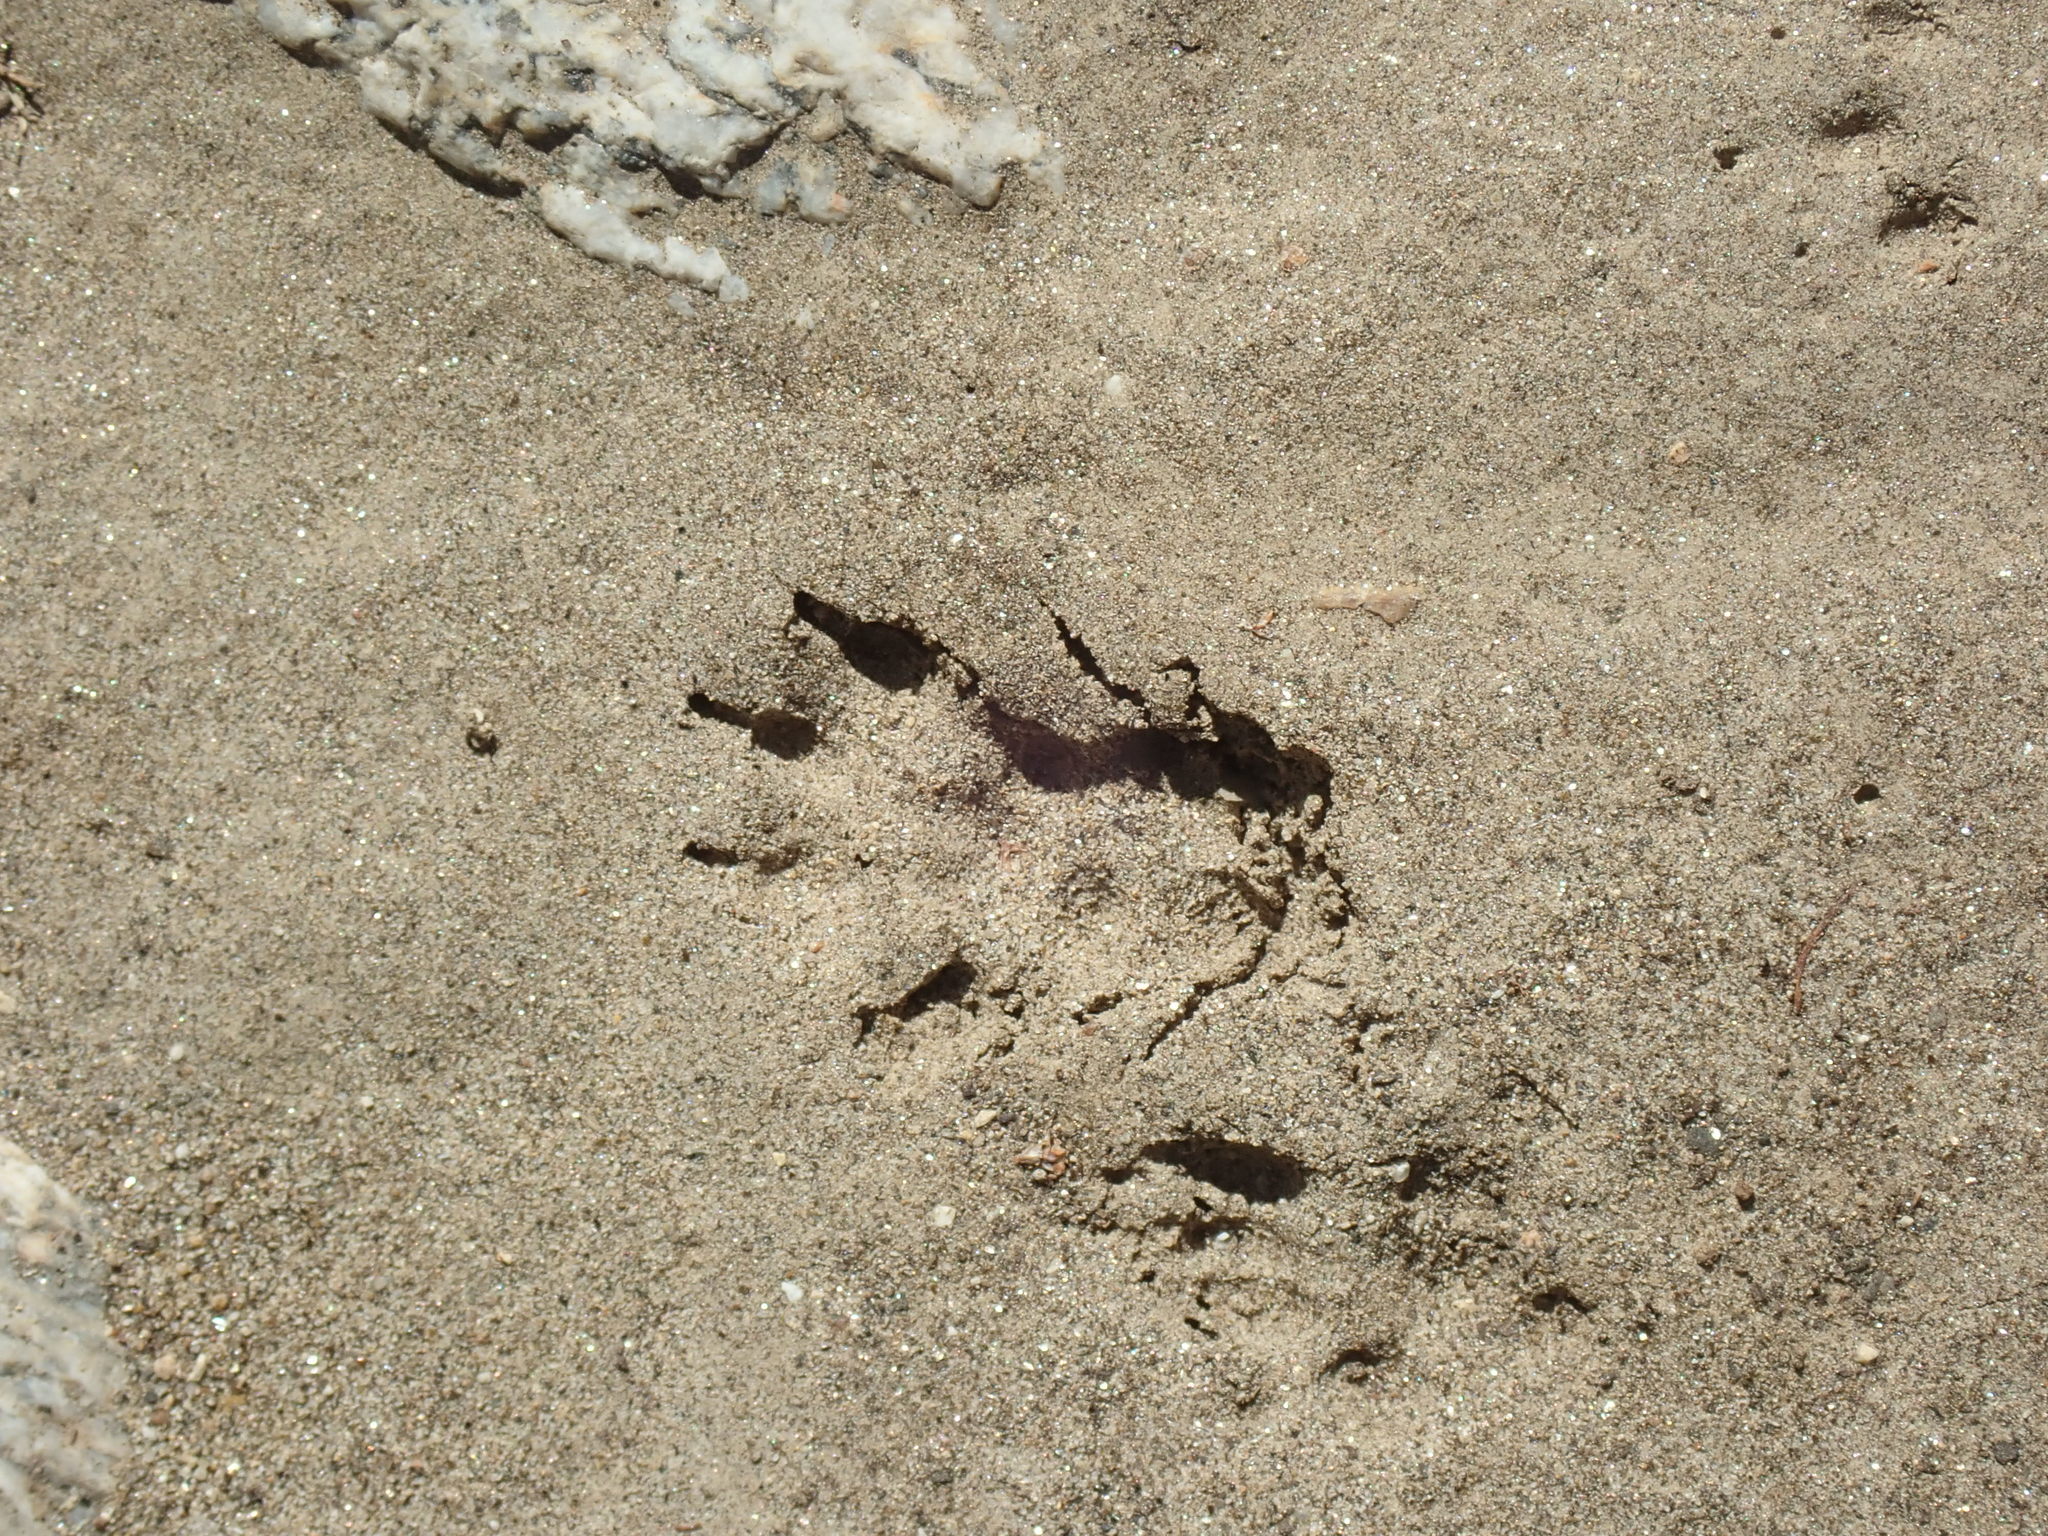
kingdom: Animalia
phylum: Chordata
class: Mammalia
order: Rodentia
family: Sciuridae
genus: Otospermophilus
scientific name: Otospermophilus beecheyi
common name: California ground squirrel
